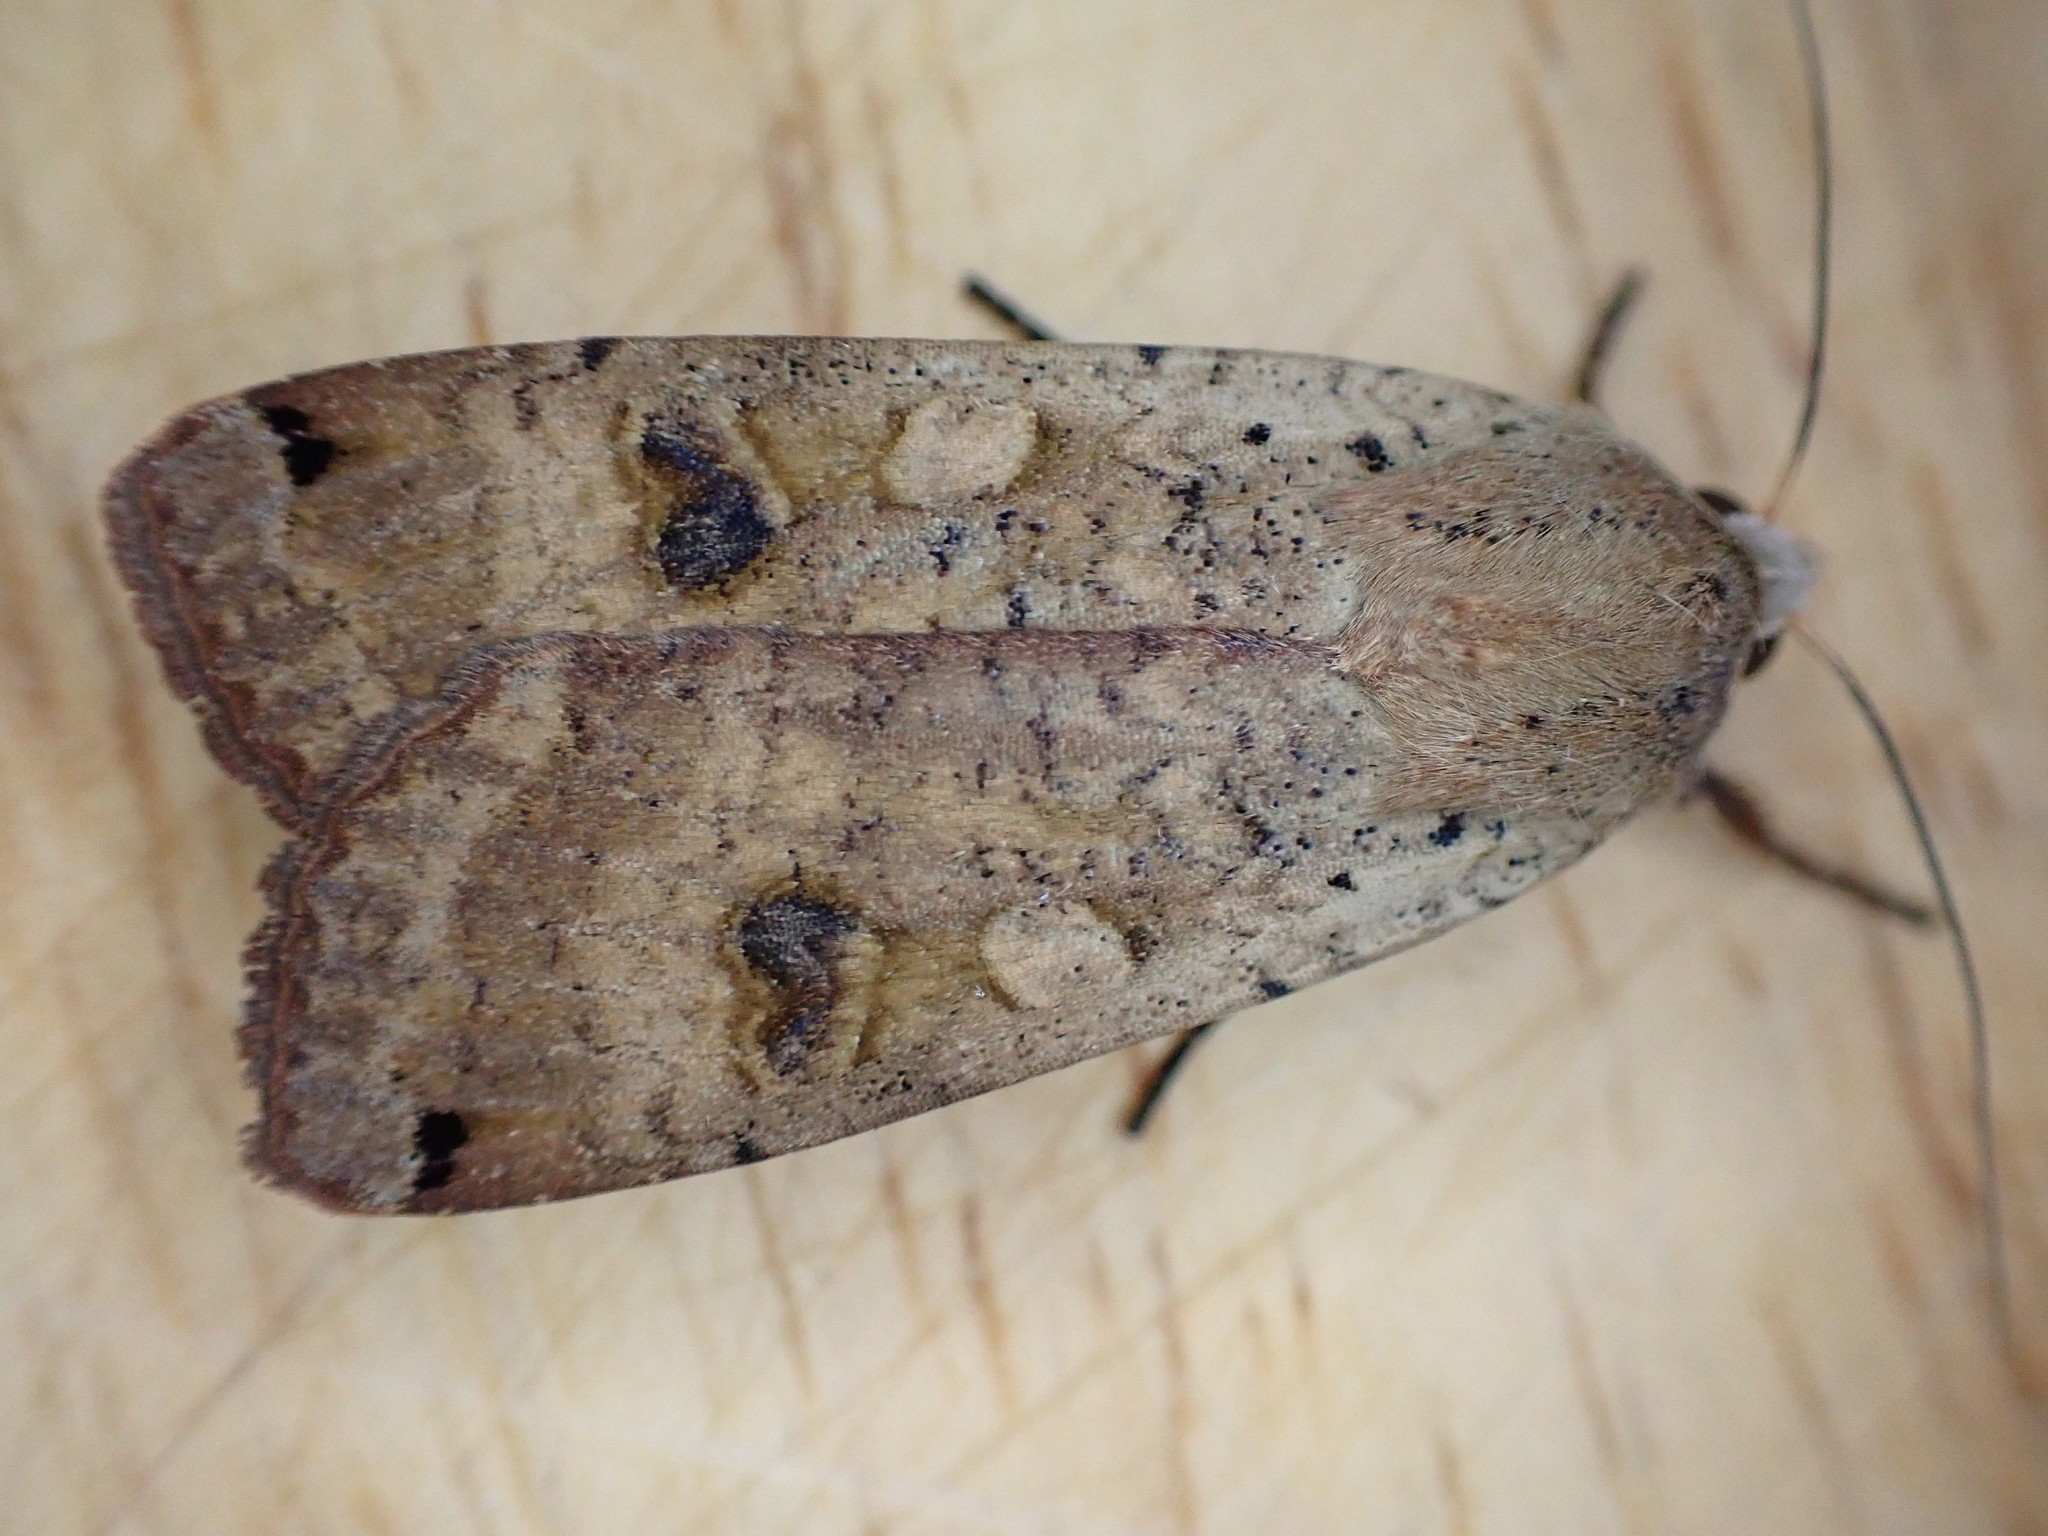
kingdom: Animalia
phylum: Arthropoda
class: Insecta
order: Lepidoptera
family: Noctuidae
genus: Noctua
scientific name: Noctua pronuba
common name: Large yellow underwing
